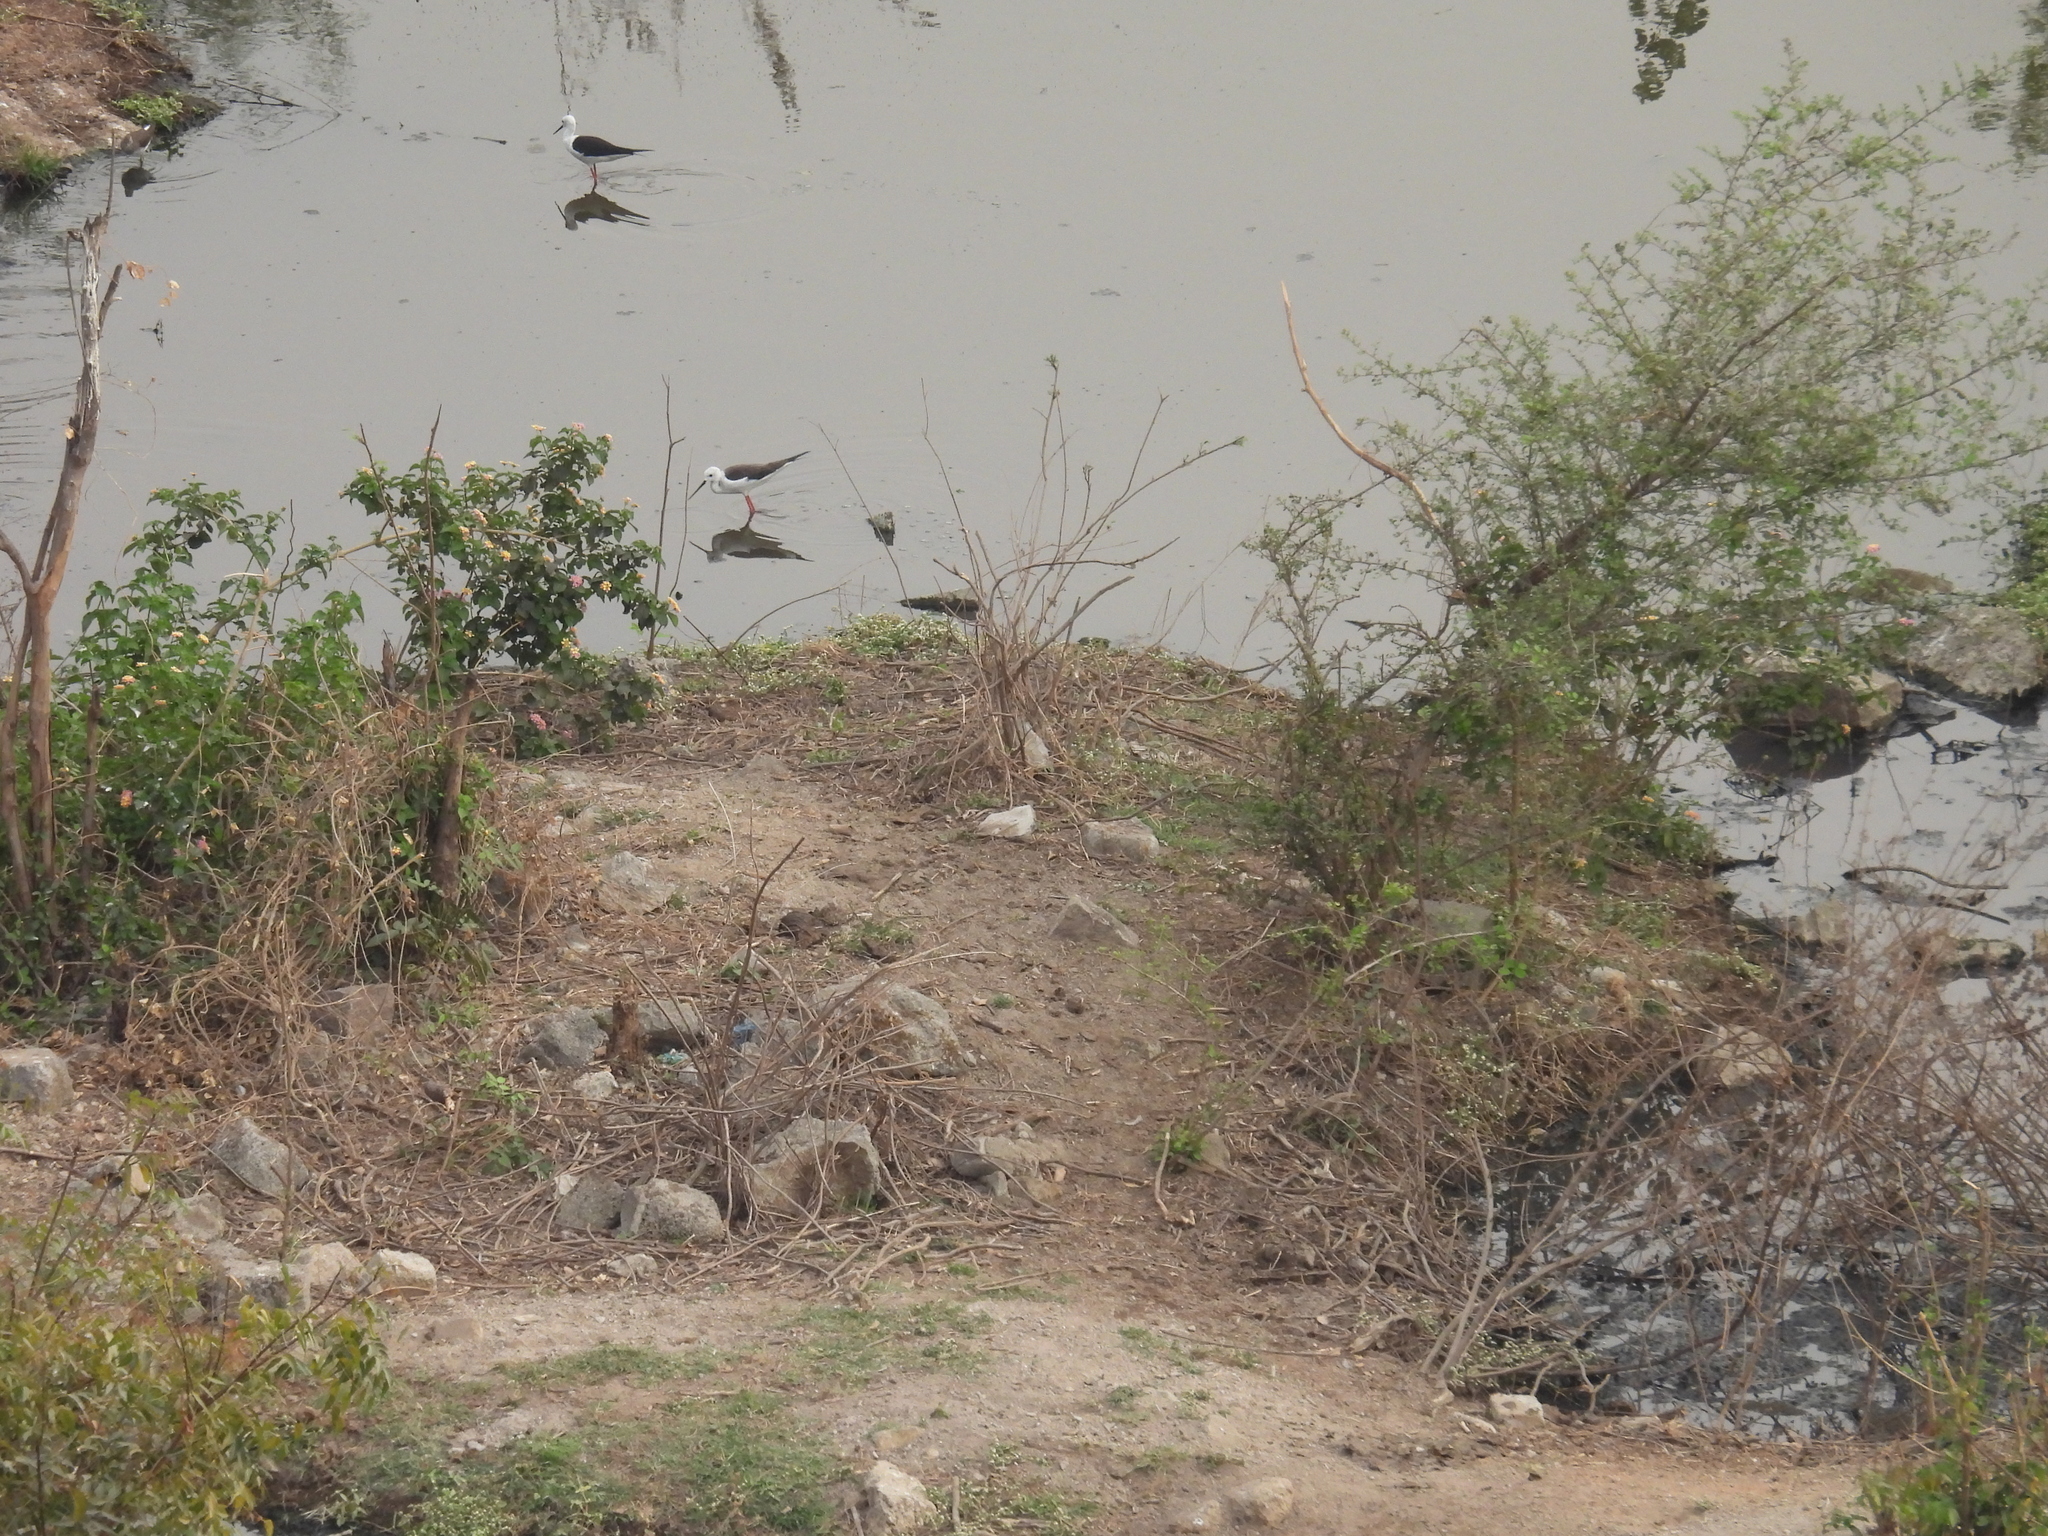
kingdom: Animalia
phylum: Chordata
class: Aves
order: Charadriiformes
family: Recurvirostridae
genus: Himantopus
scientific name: Himantopus himantopus
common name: Black-winged stilt
